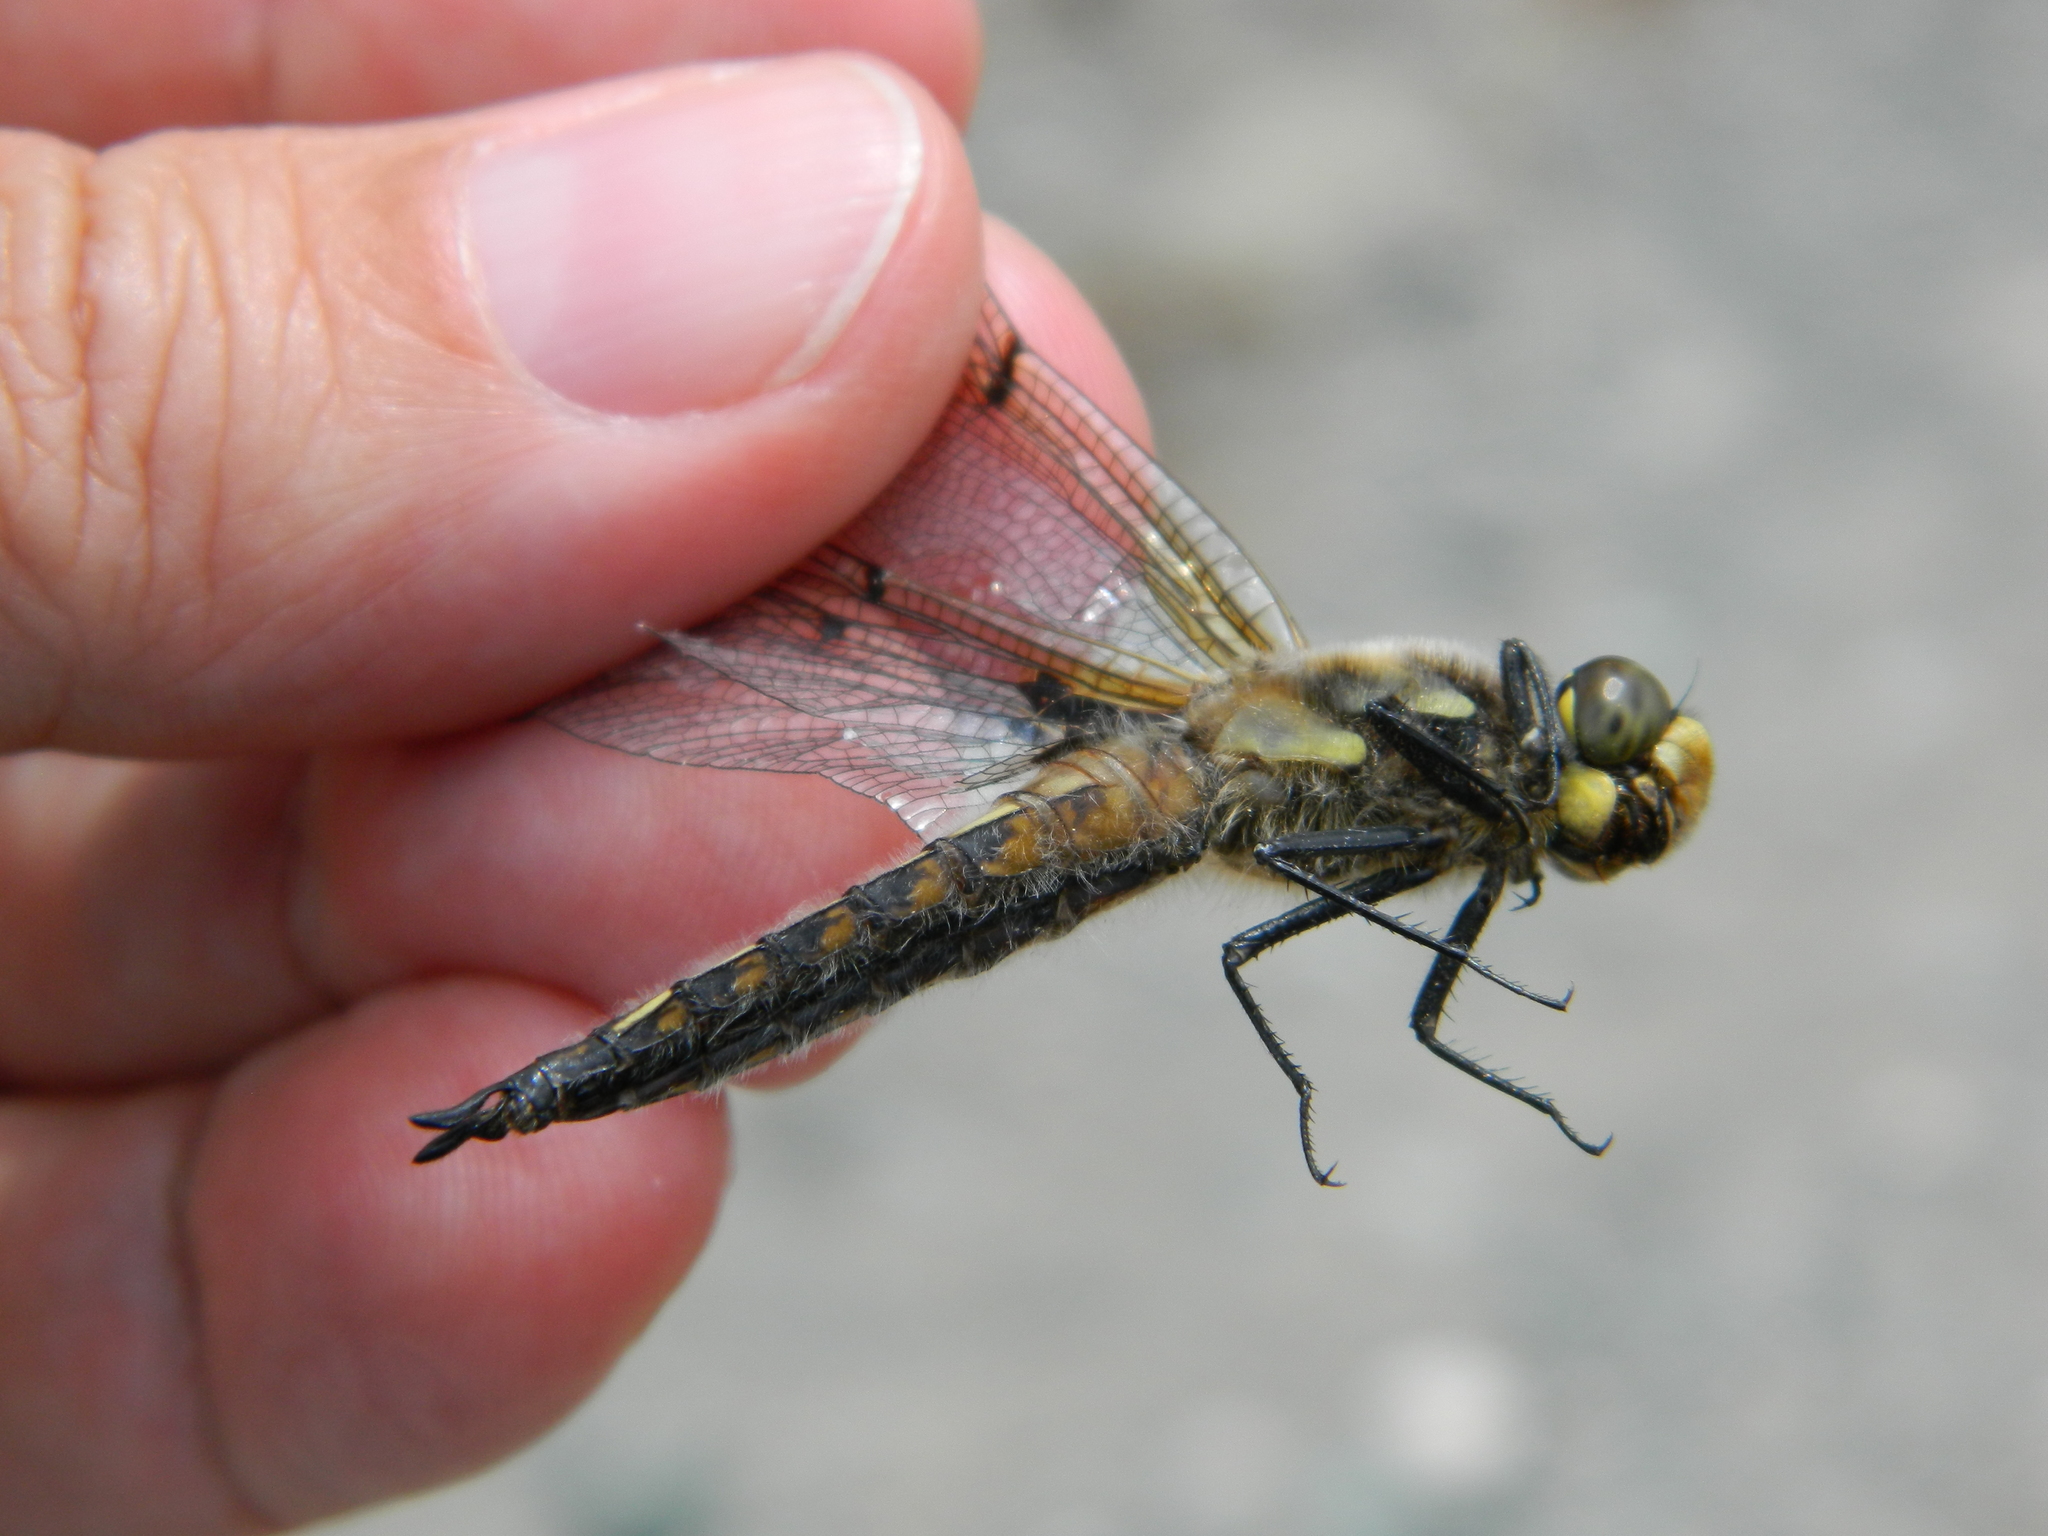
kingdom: Animalia
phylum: Arthropoda
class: Insecta
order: Odonata
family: Libellulidae
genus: Libellula
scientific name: Libellula quadrimaculata
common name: Four-spotted chaser
